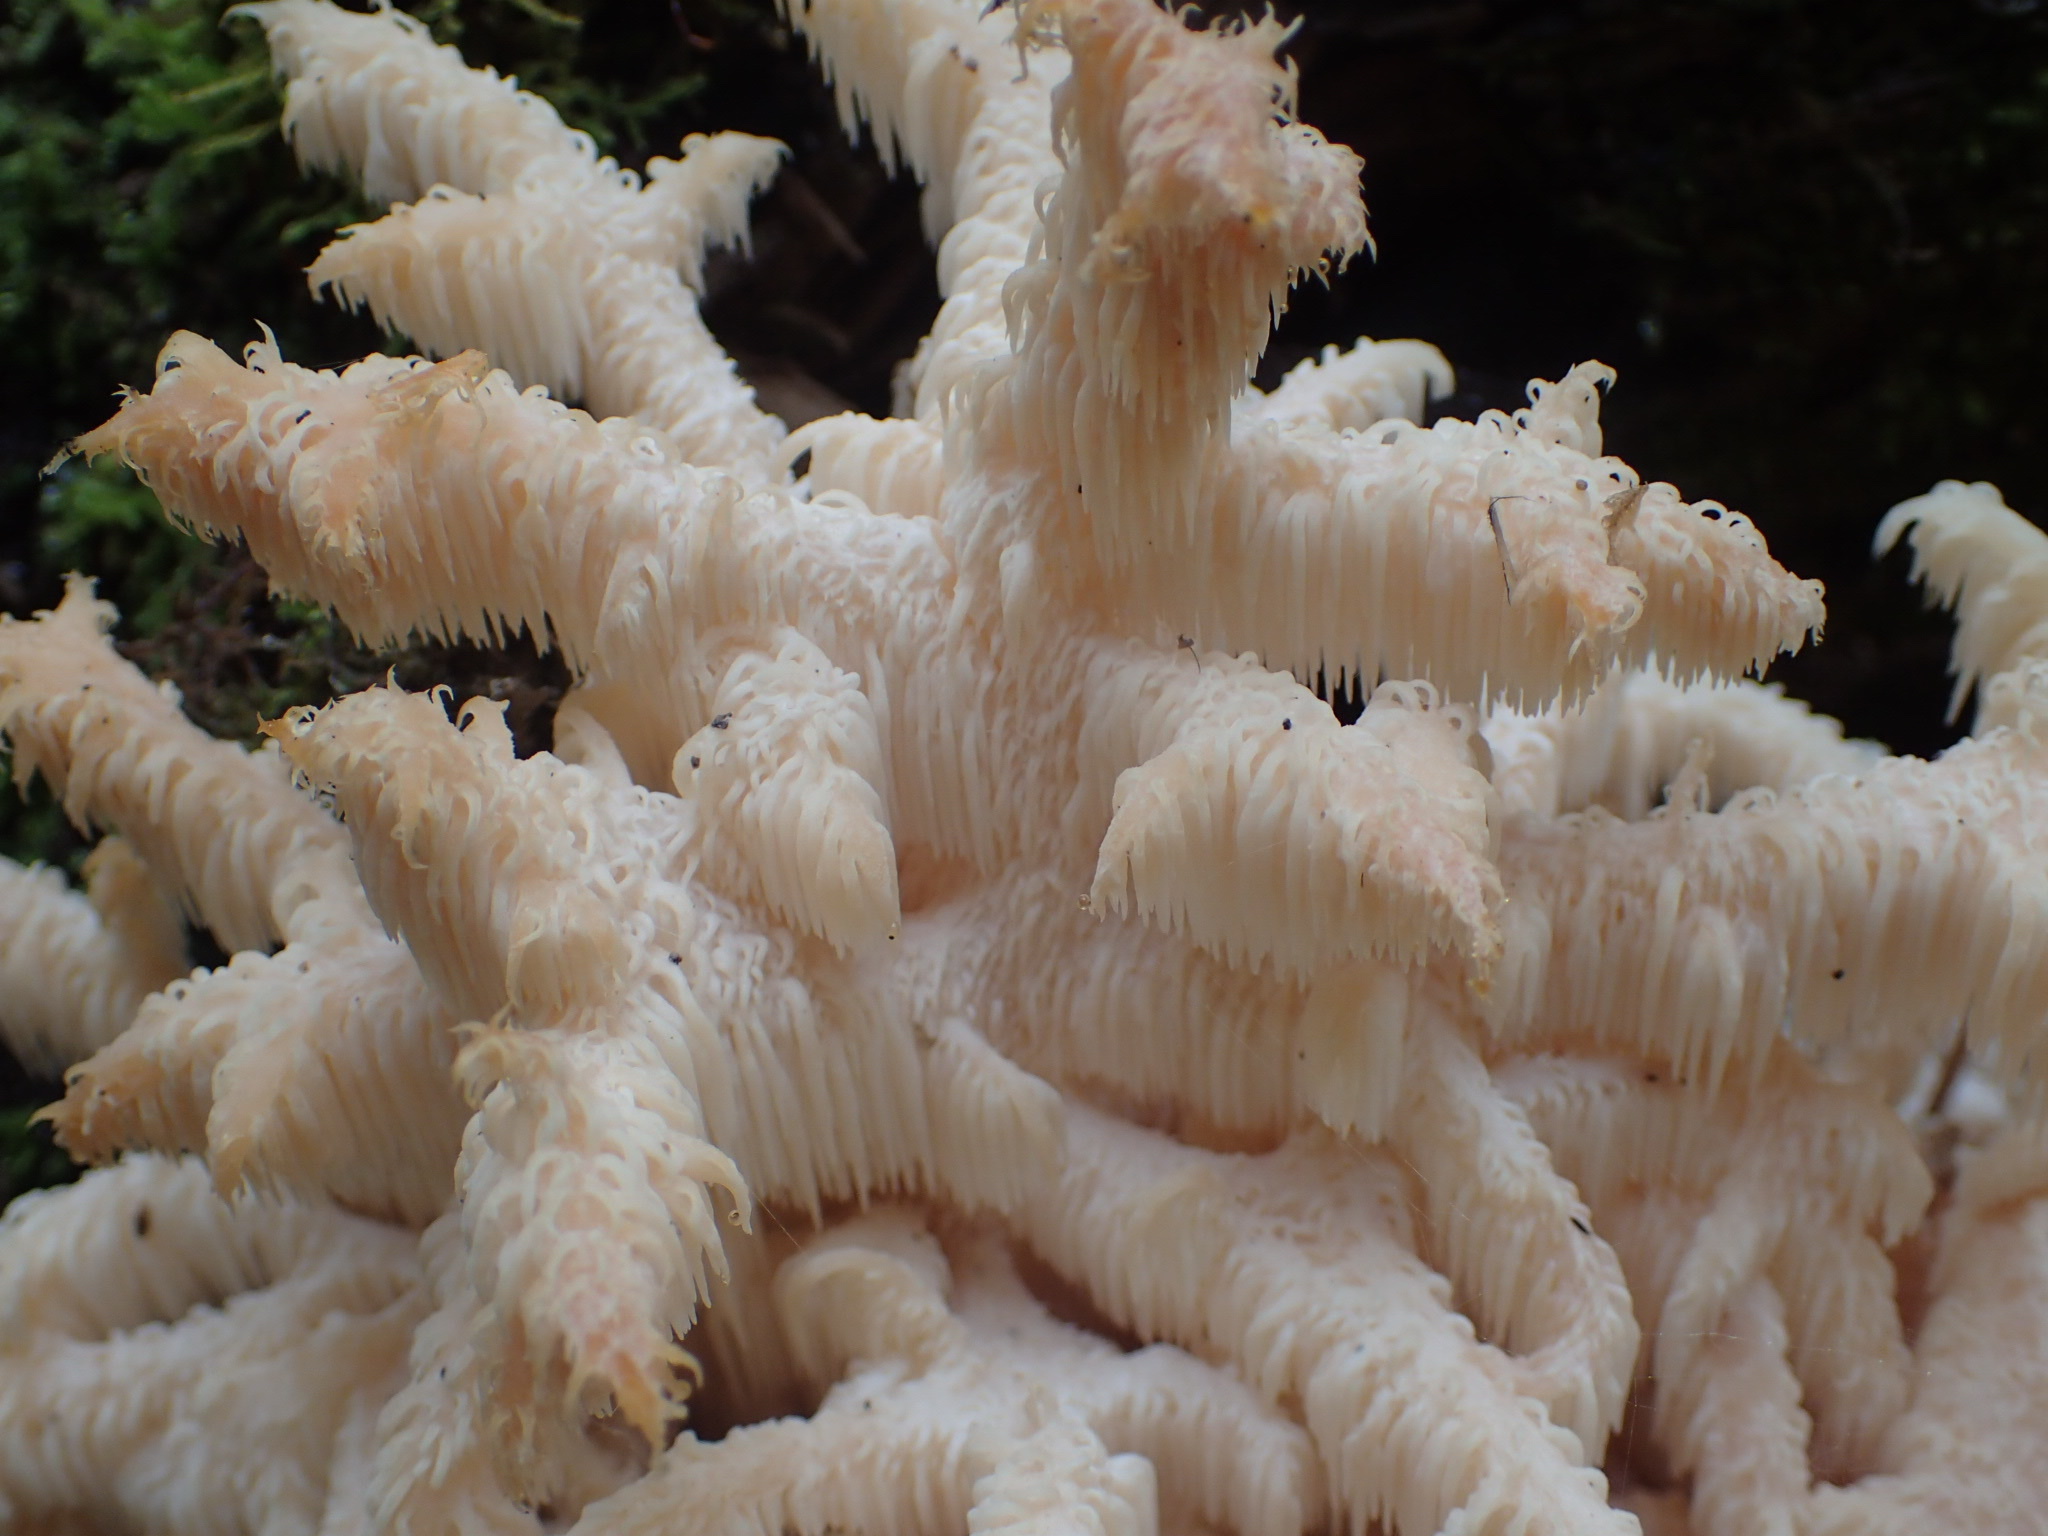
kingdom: Fungi
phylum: Basidiomycota
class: Agaricomycetes
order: Russulales
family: Hericiaceae
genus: Hericium
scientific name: Hericium coralloides
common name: Coral tooth
